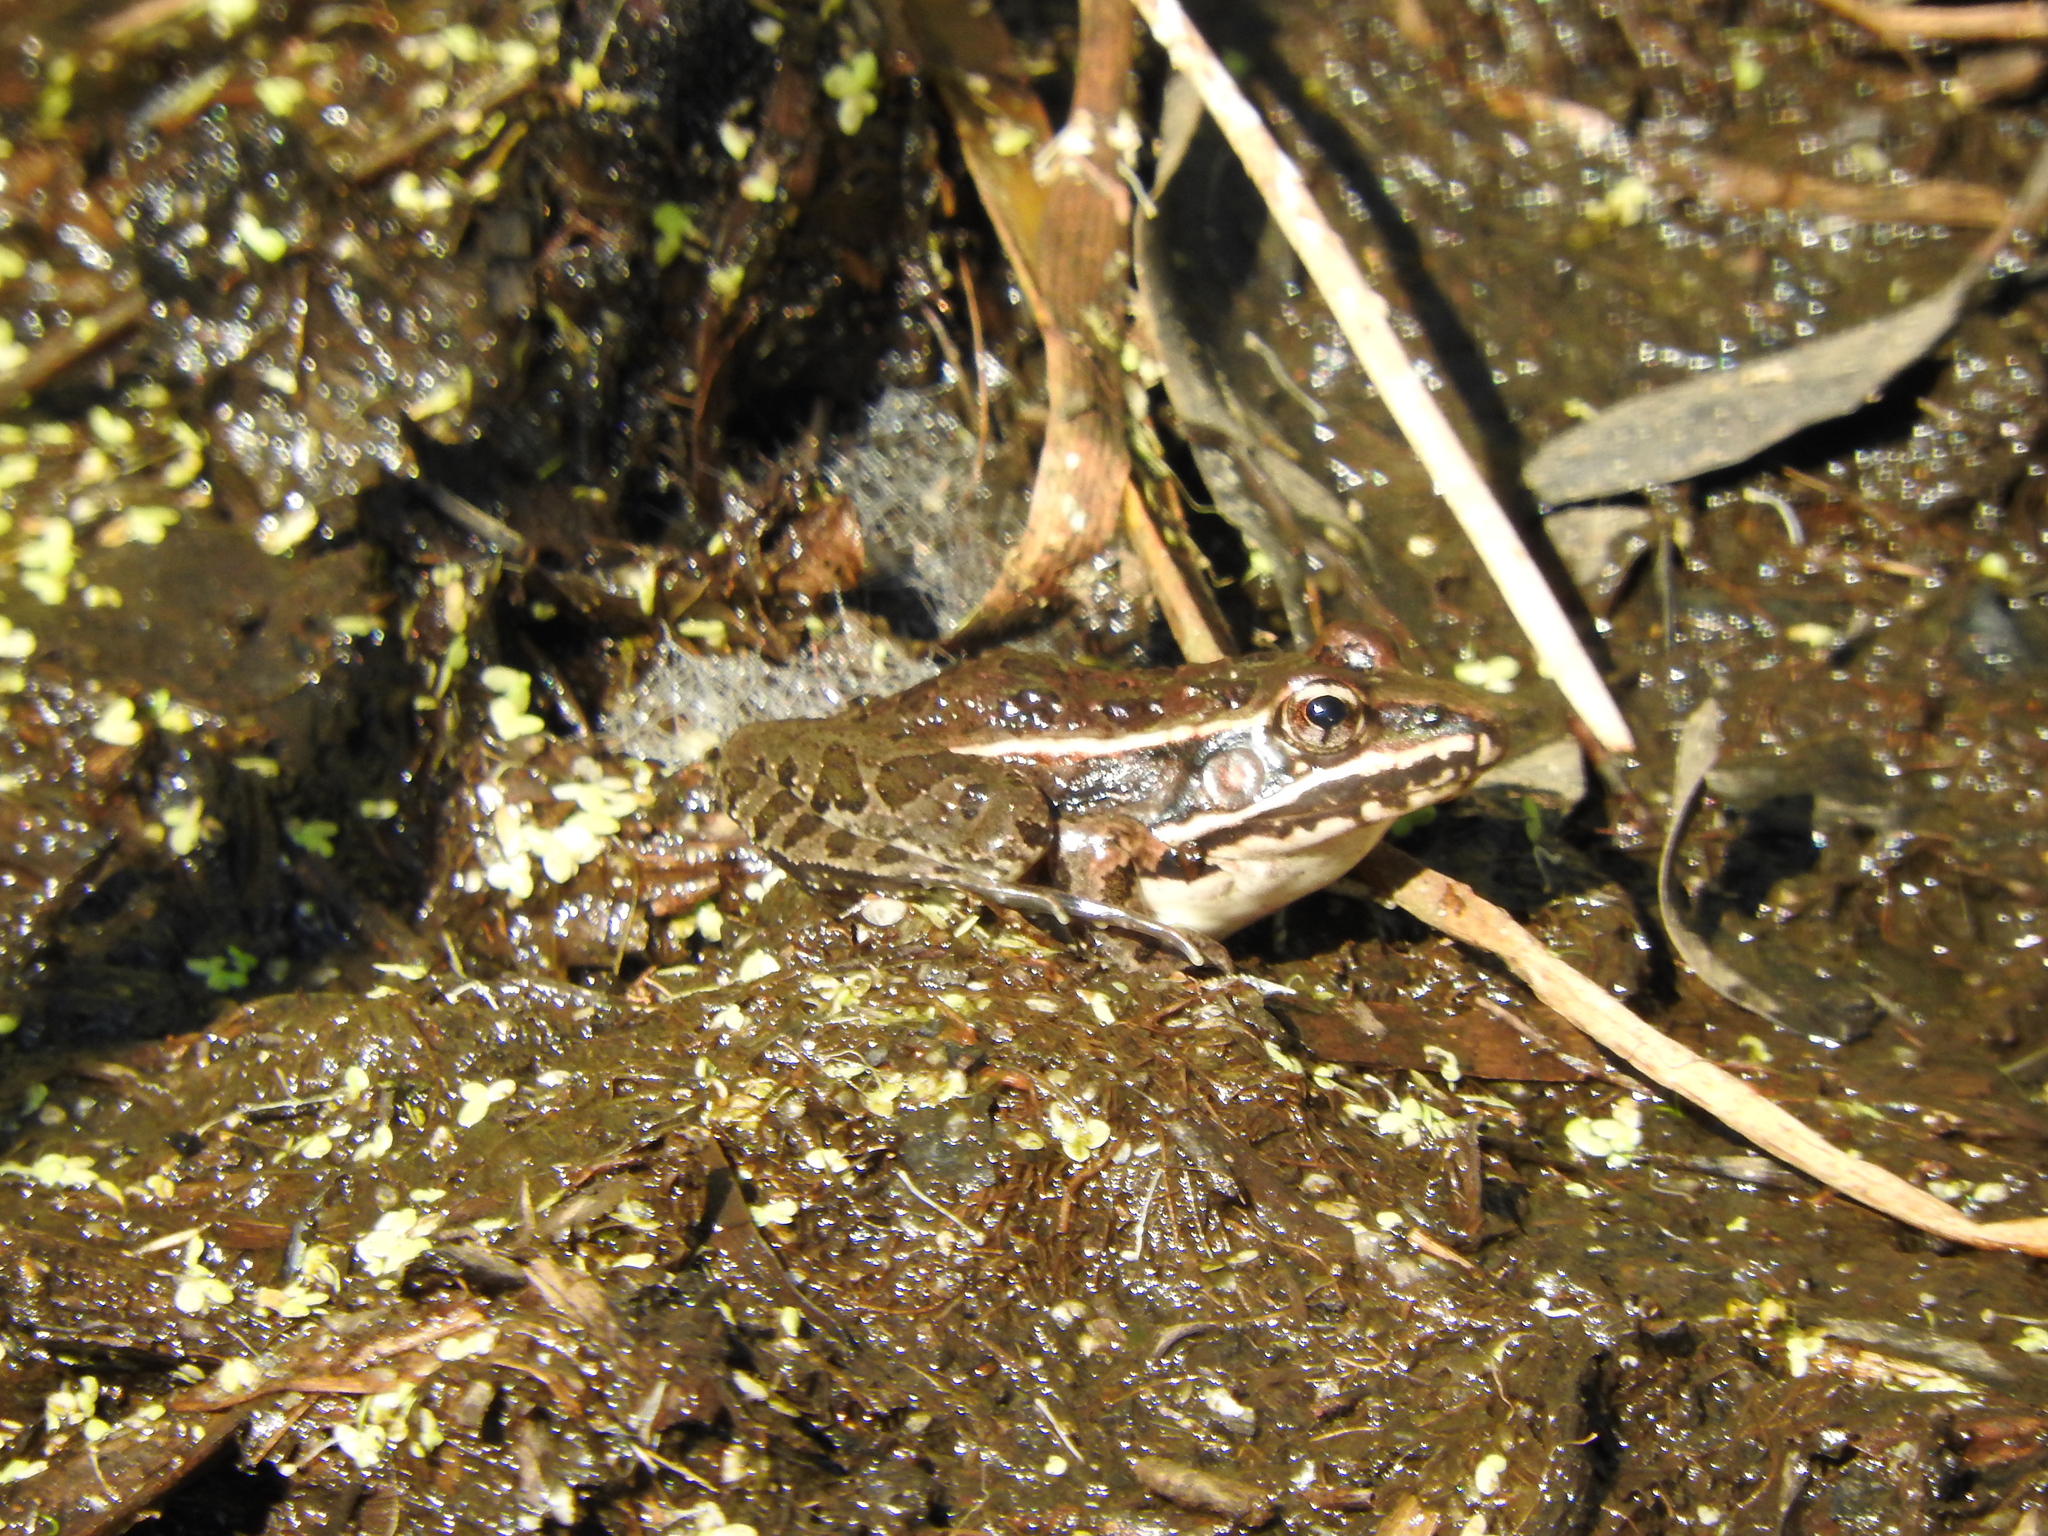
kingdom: Animalia
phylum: Chordata
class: Amphibia
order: Anura
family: Ranidae
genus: Lithobates
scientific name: Lithobates neovolcanicus
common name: Transverse volcanic leopard frog
